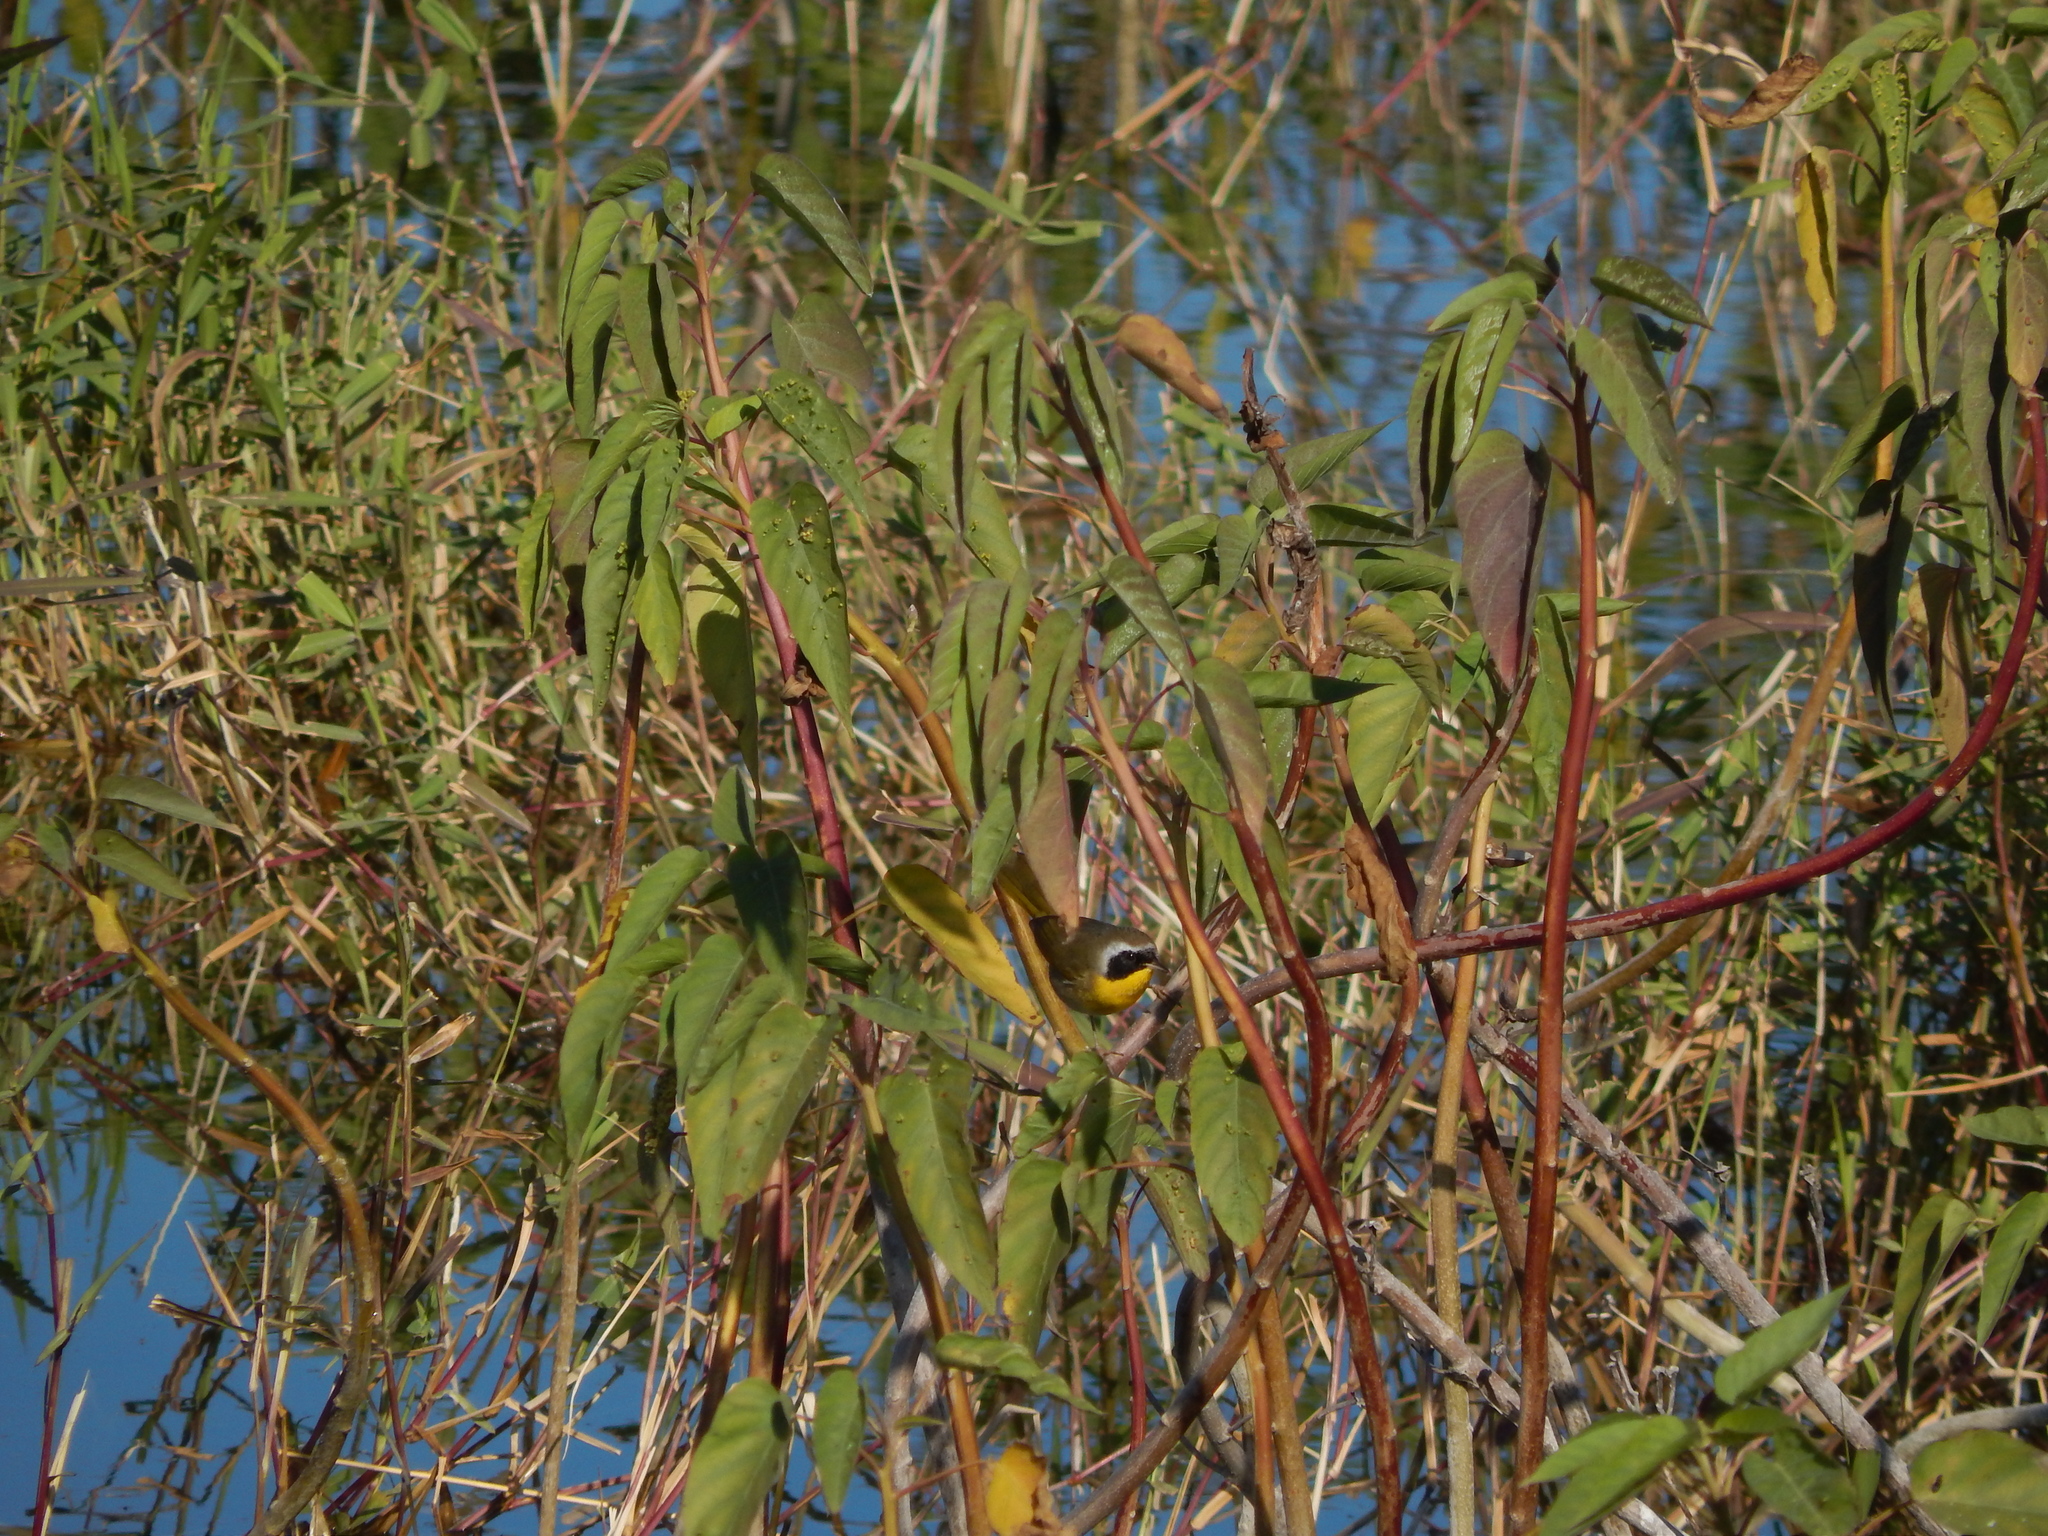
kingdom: Animalia
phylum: Chordata
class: Aves
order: Passeriformes
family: Parulidae
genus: Geothlypis
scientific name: Geothlypis trichas
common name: Common yellowthroat
